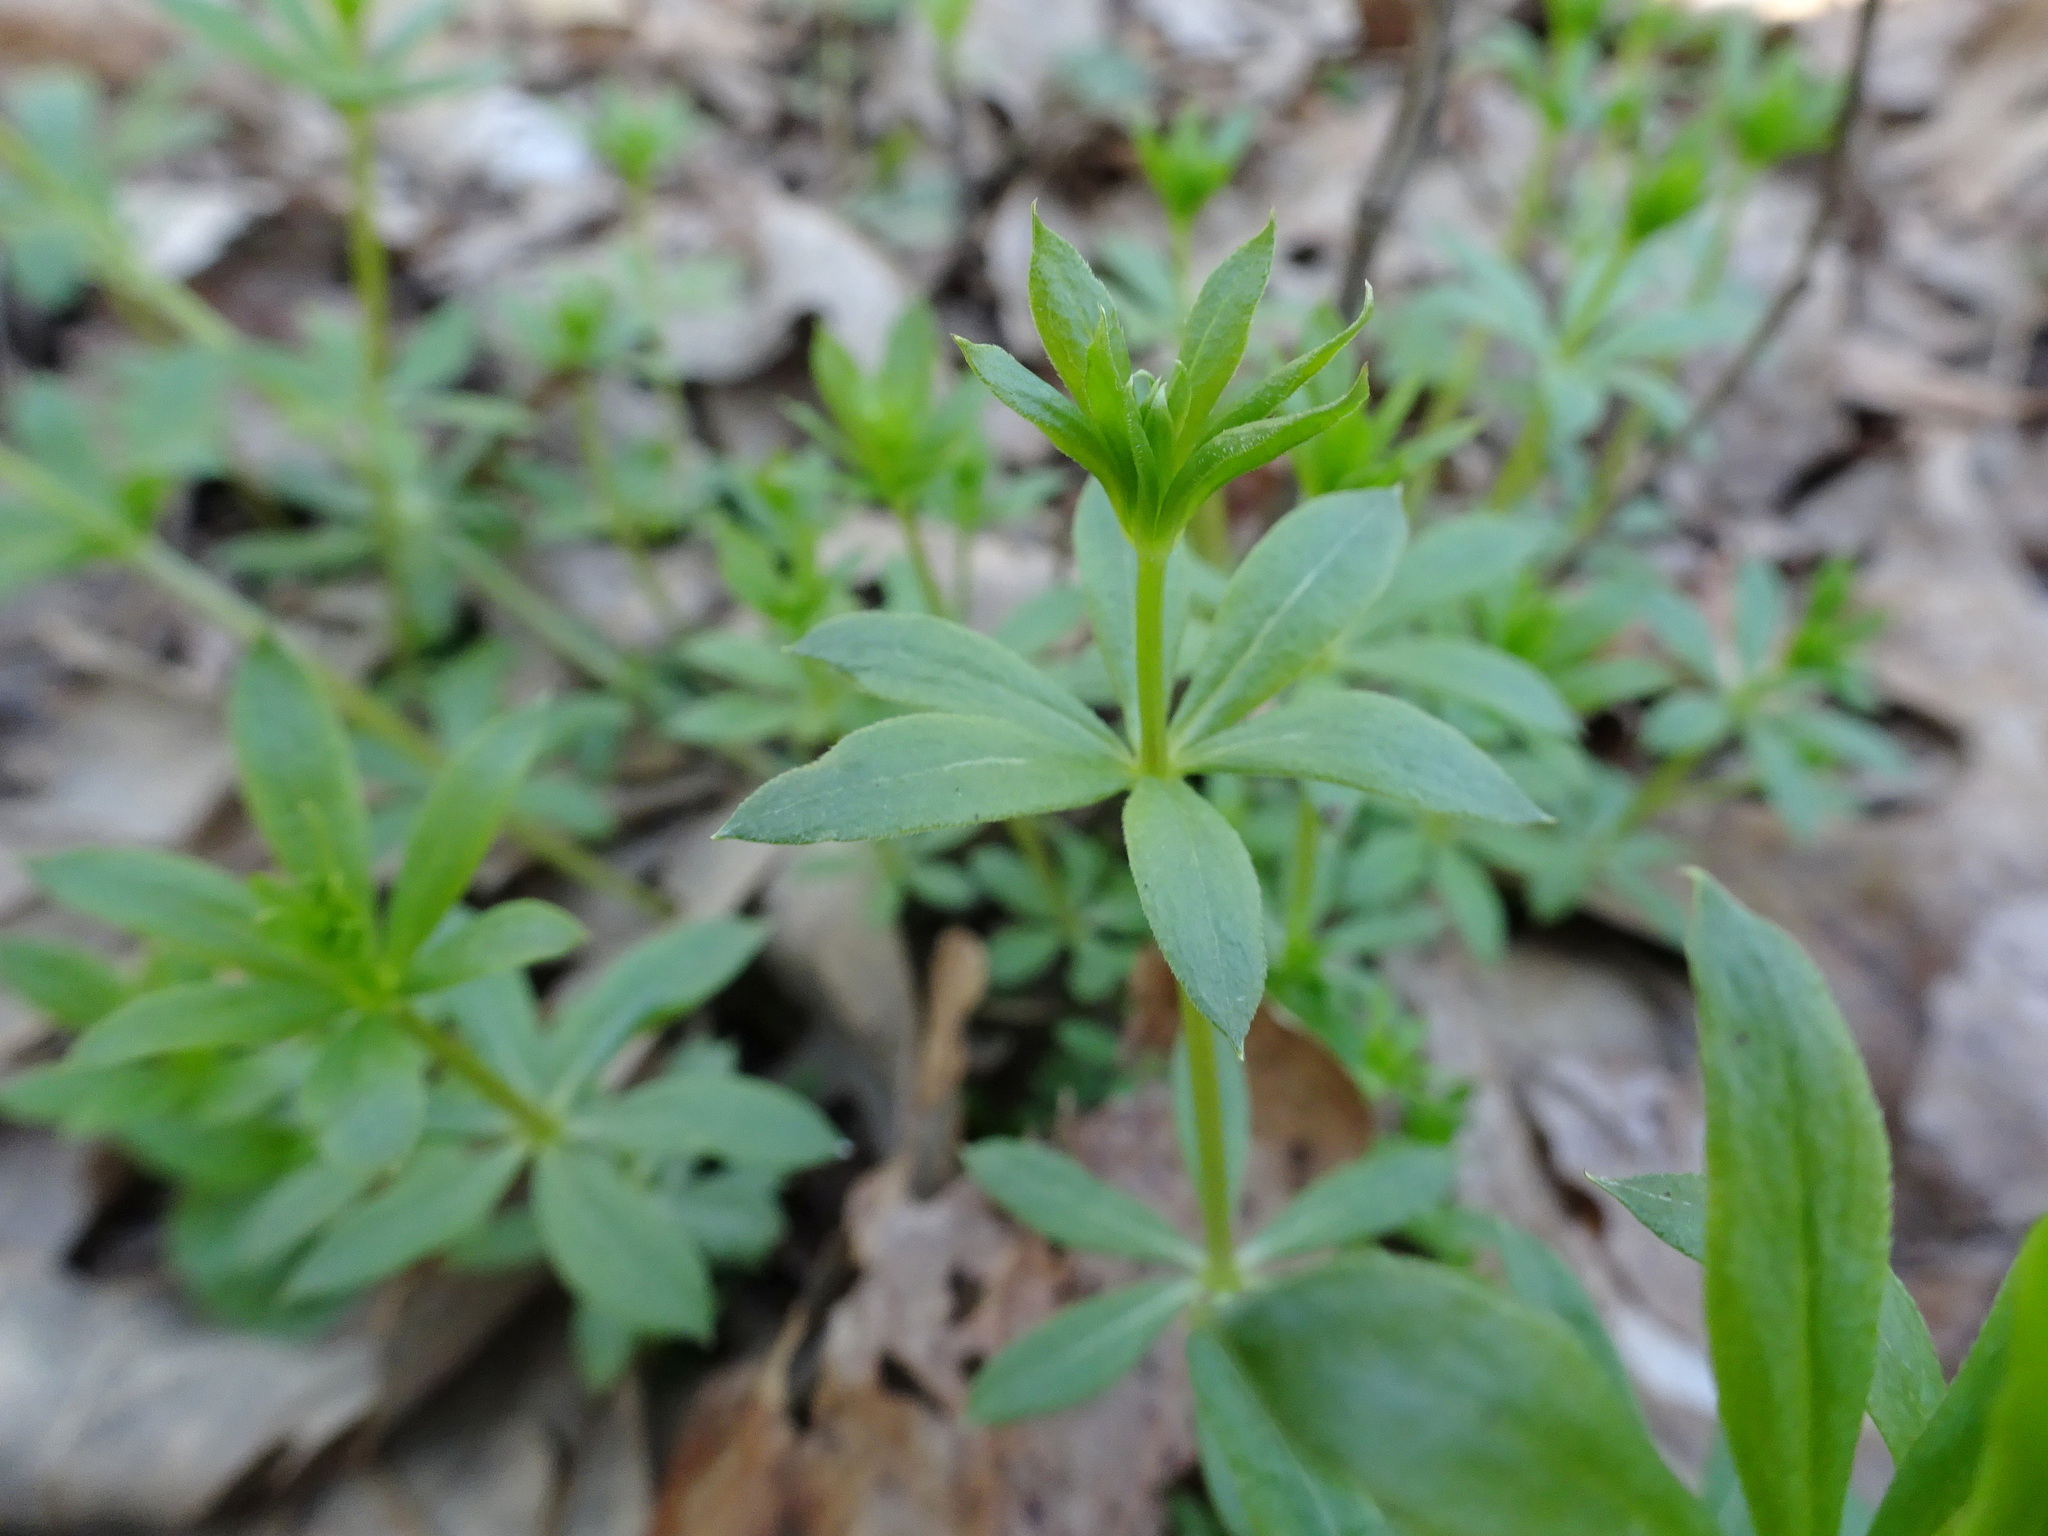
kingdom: Plantae
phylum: Tracheophyta
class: Magnoliopsida
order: Gentianales
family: Rubiaceae
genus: Galium
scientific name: Galium triflorum
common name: Fragrant bedstraw
